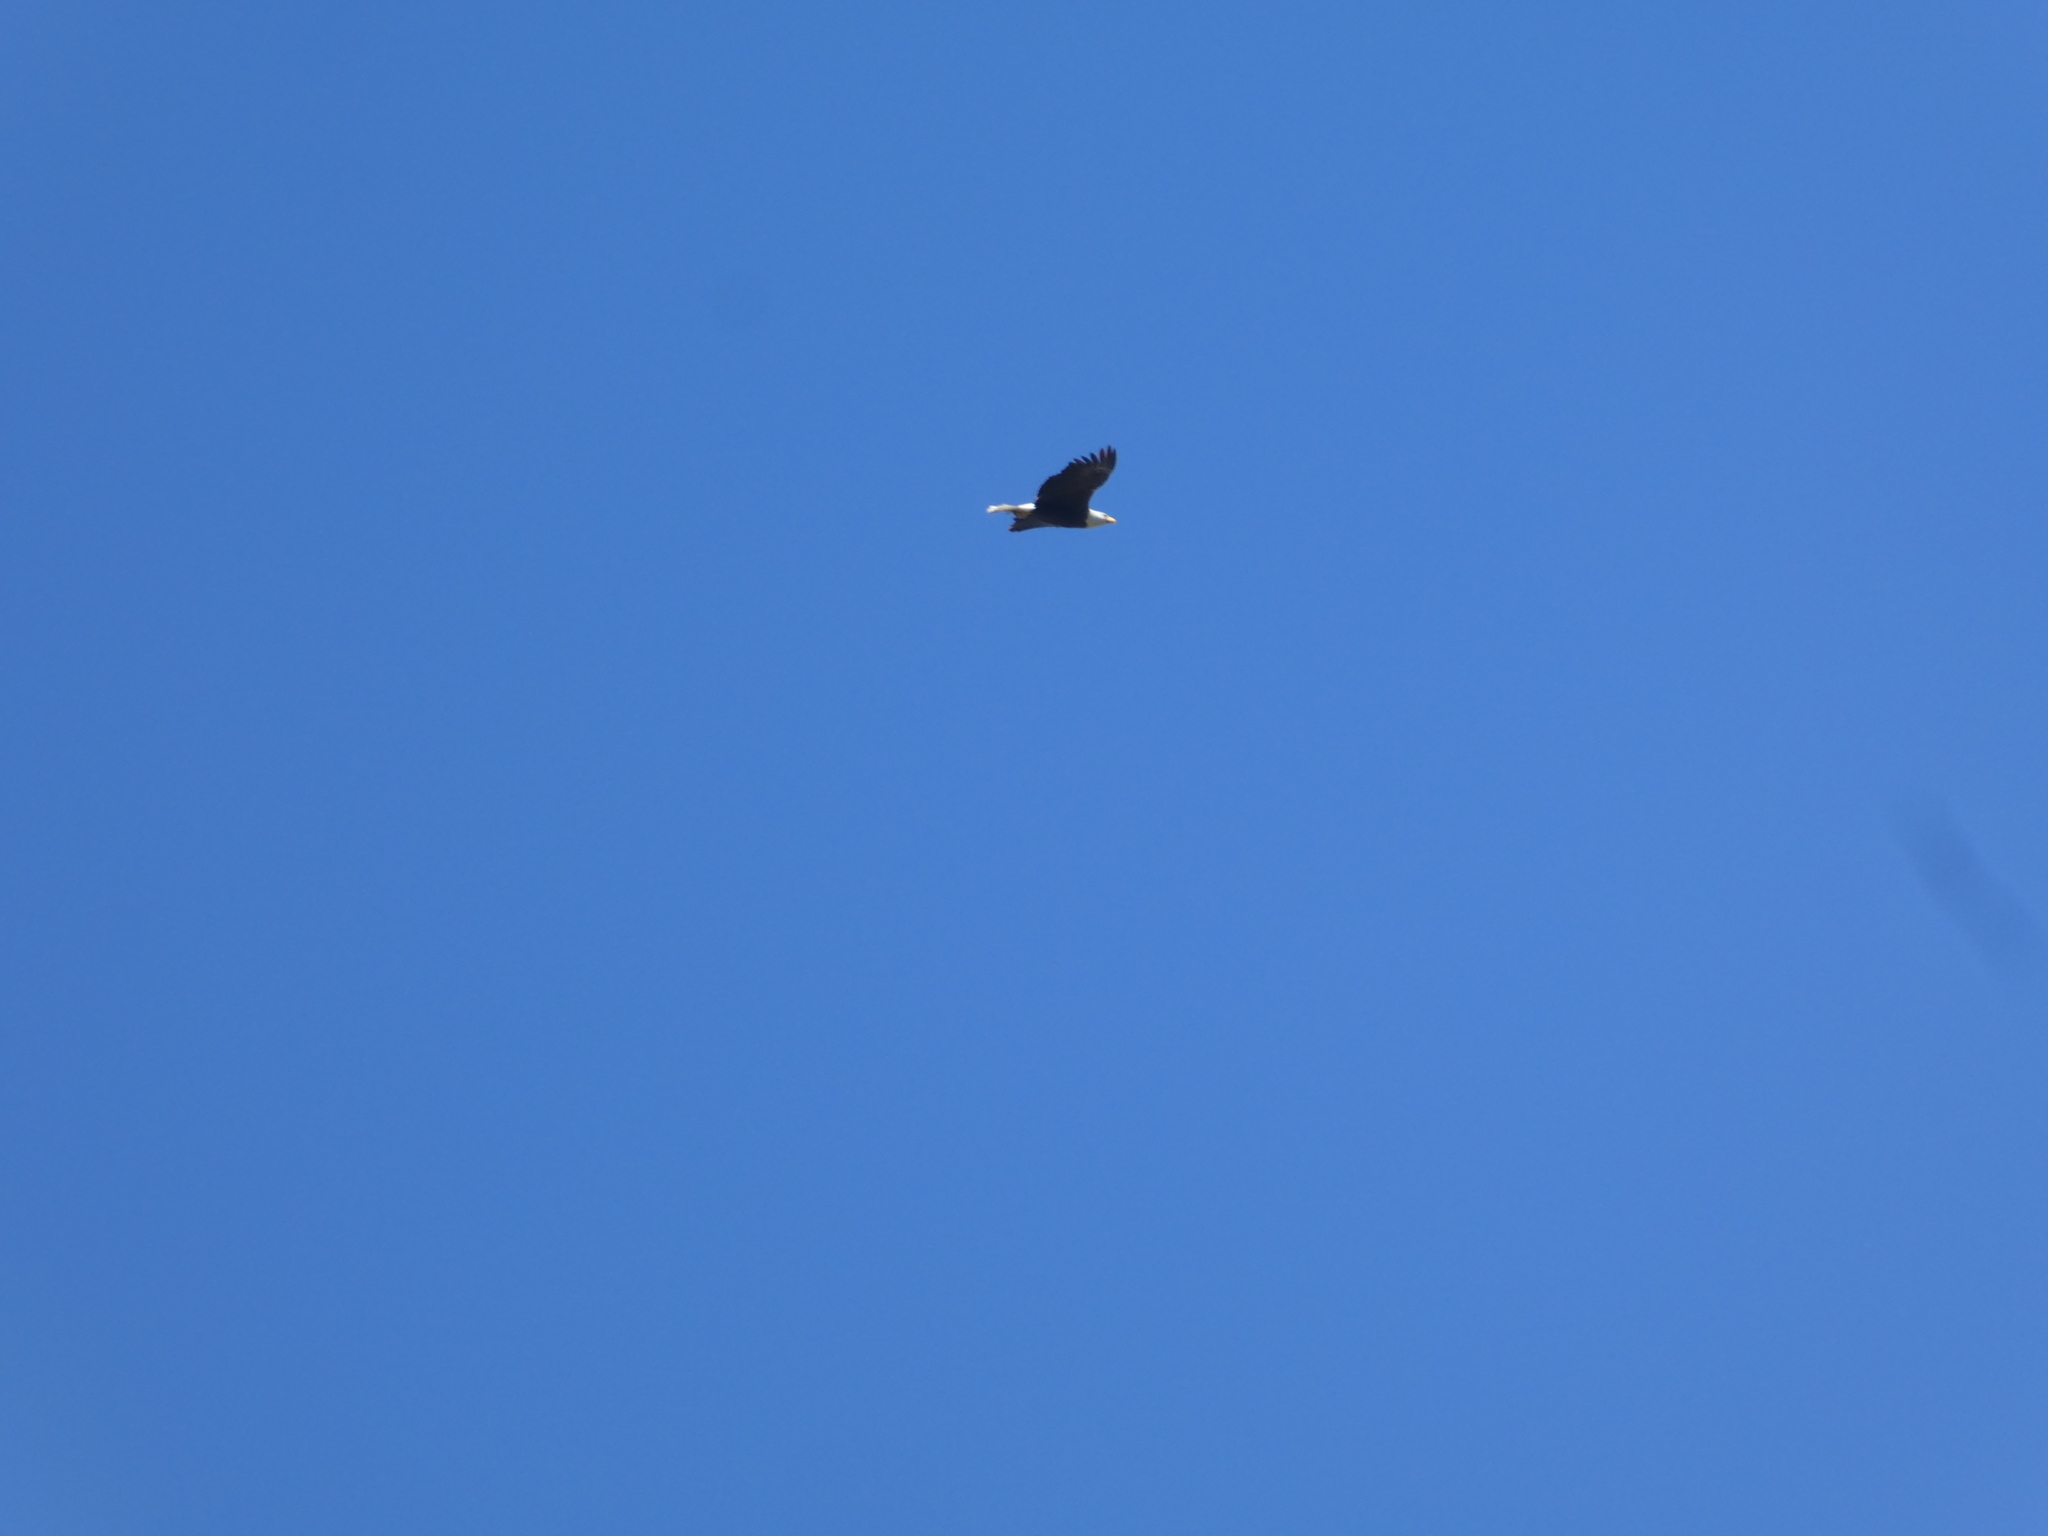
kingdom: Animalia
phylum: Chordata
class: Aves
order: Accipitriformes
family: Accipitridae
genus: Haliaeetus
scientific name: Haliaeetus leucocephalus
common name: Bald eagle
